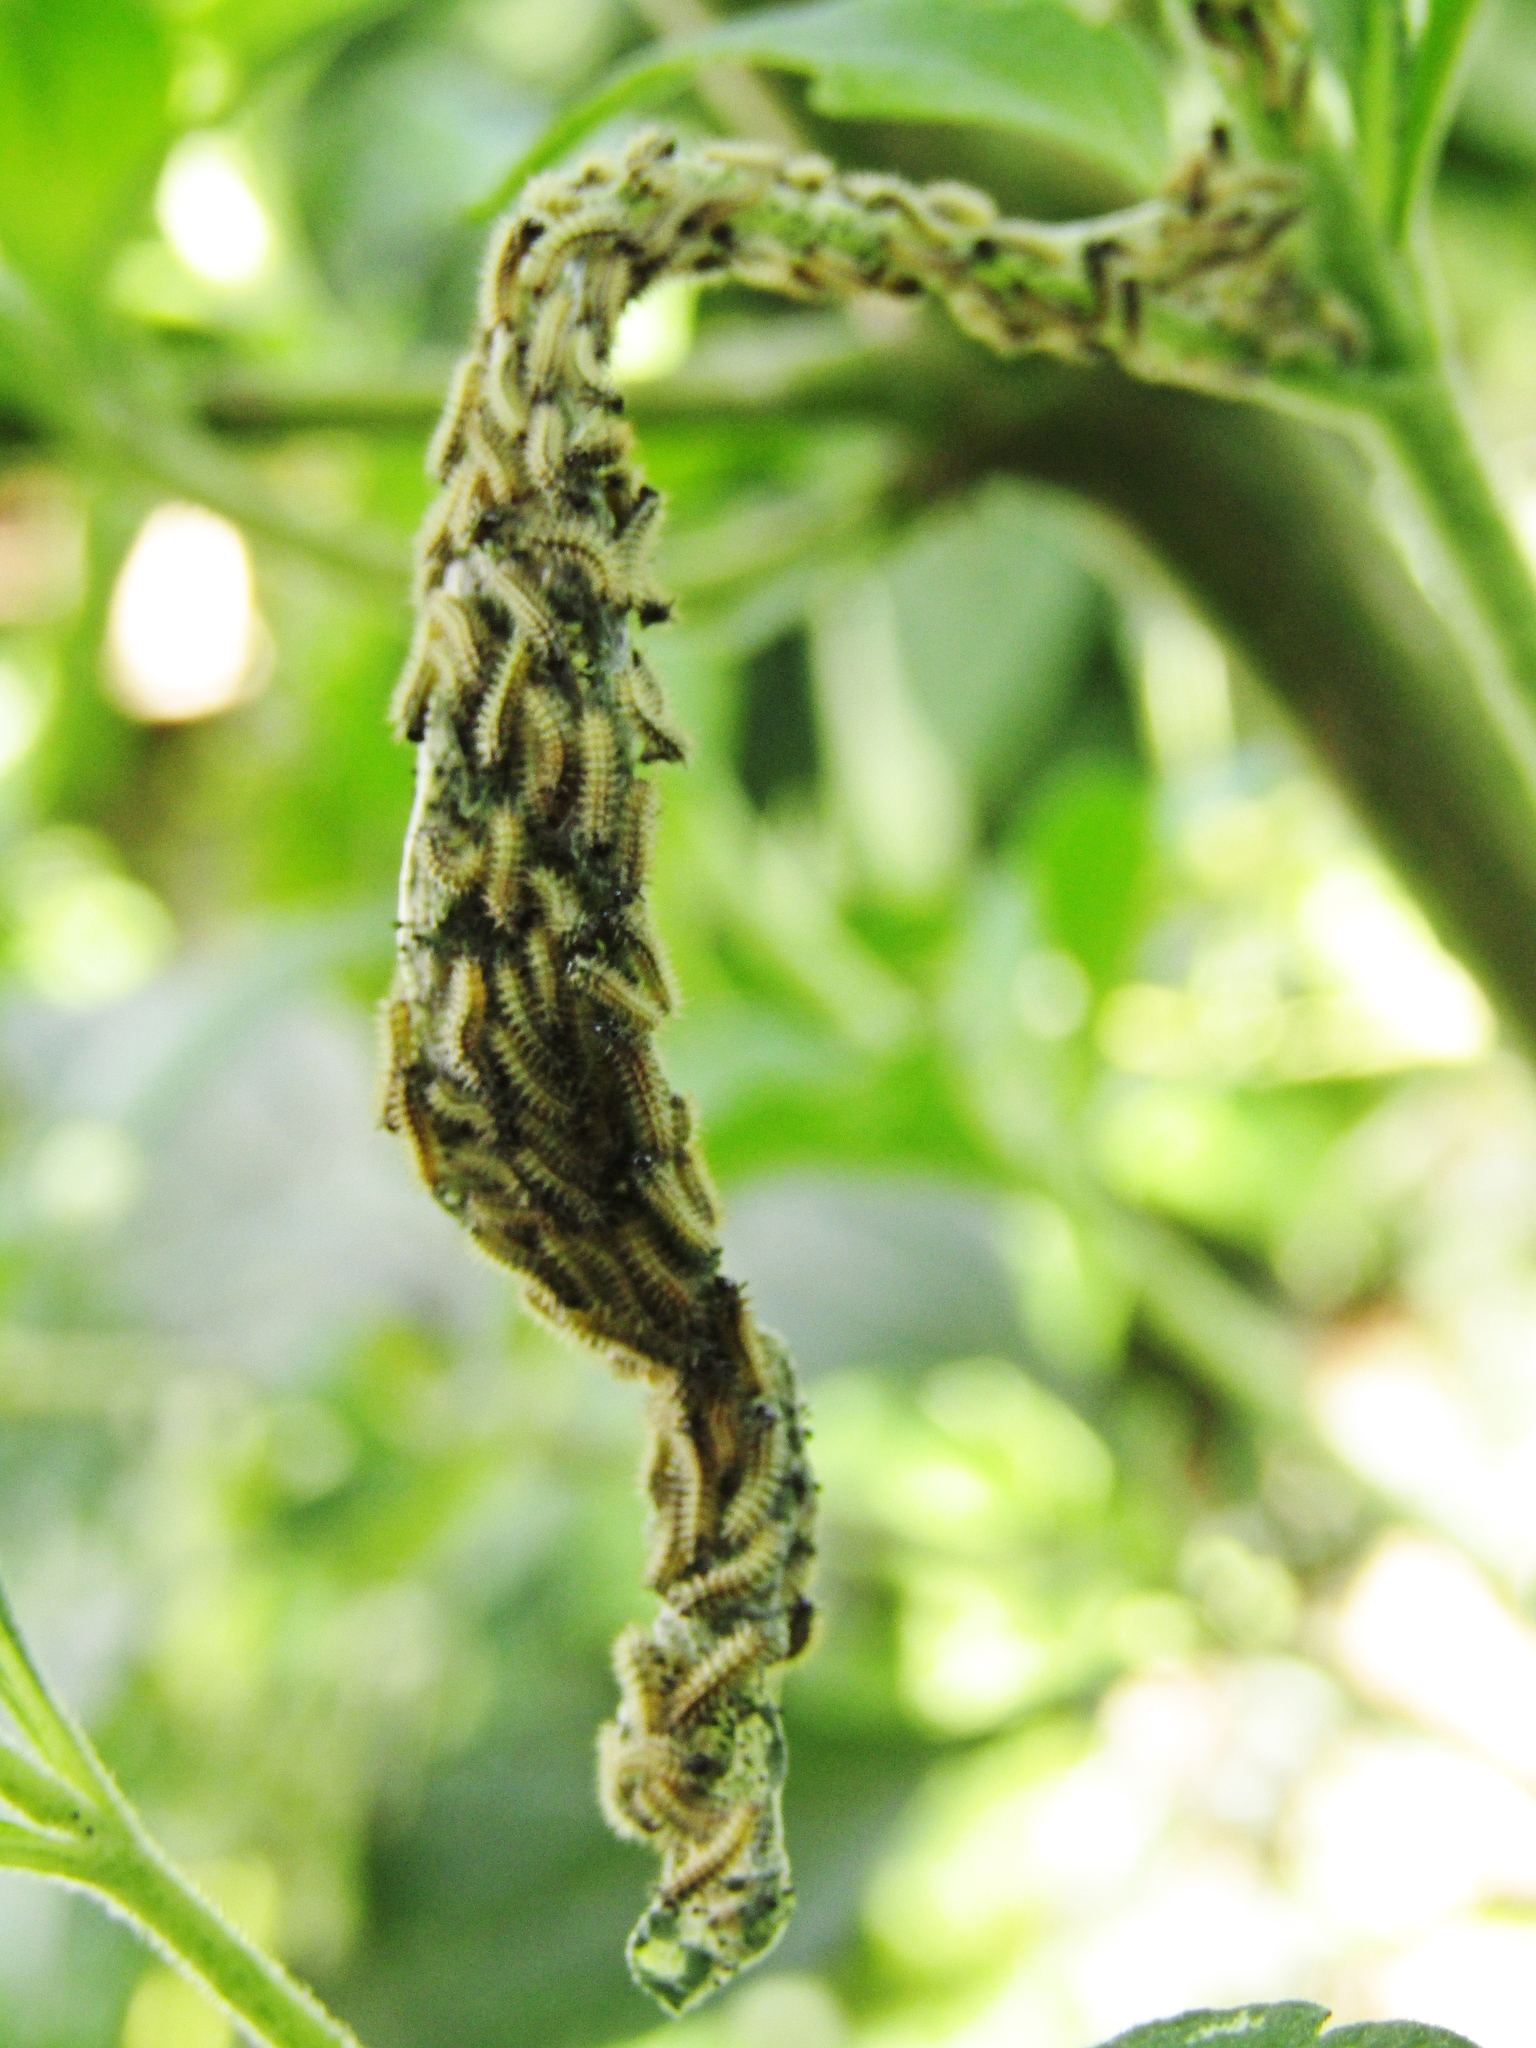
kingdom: Animalia
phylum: Arthropoda
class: Insecta
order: Lepidoptera
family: Nymphalidae
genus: Actinote
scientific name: Actinote pellenea
